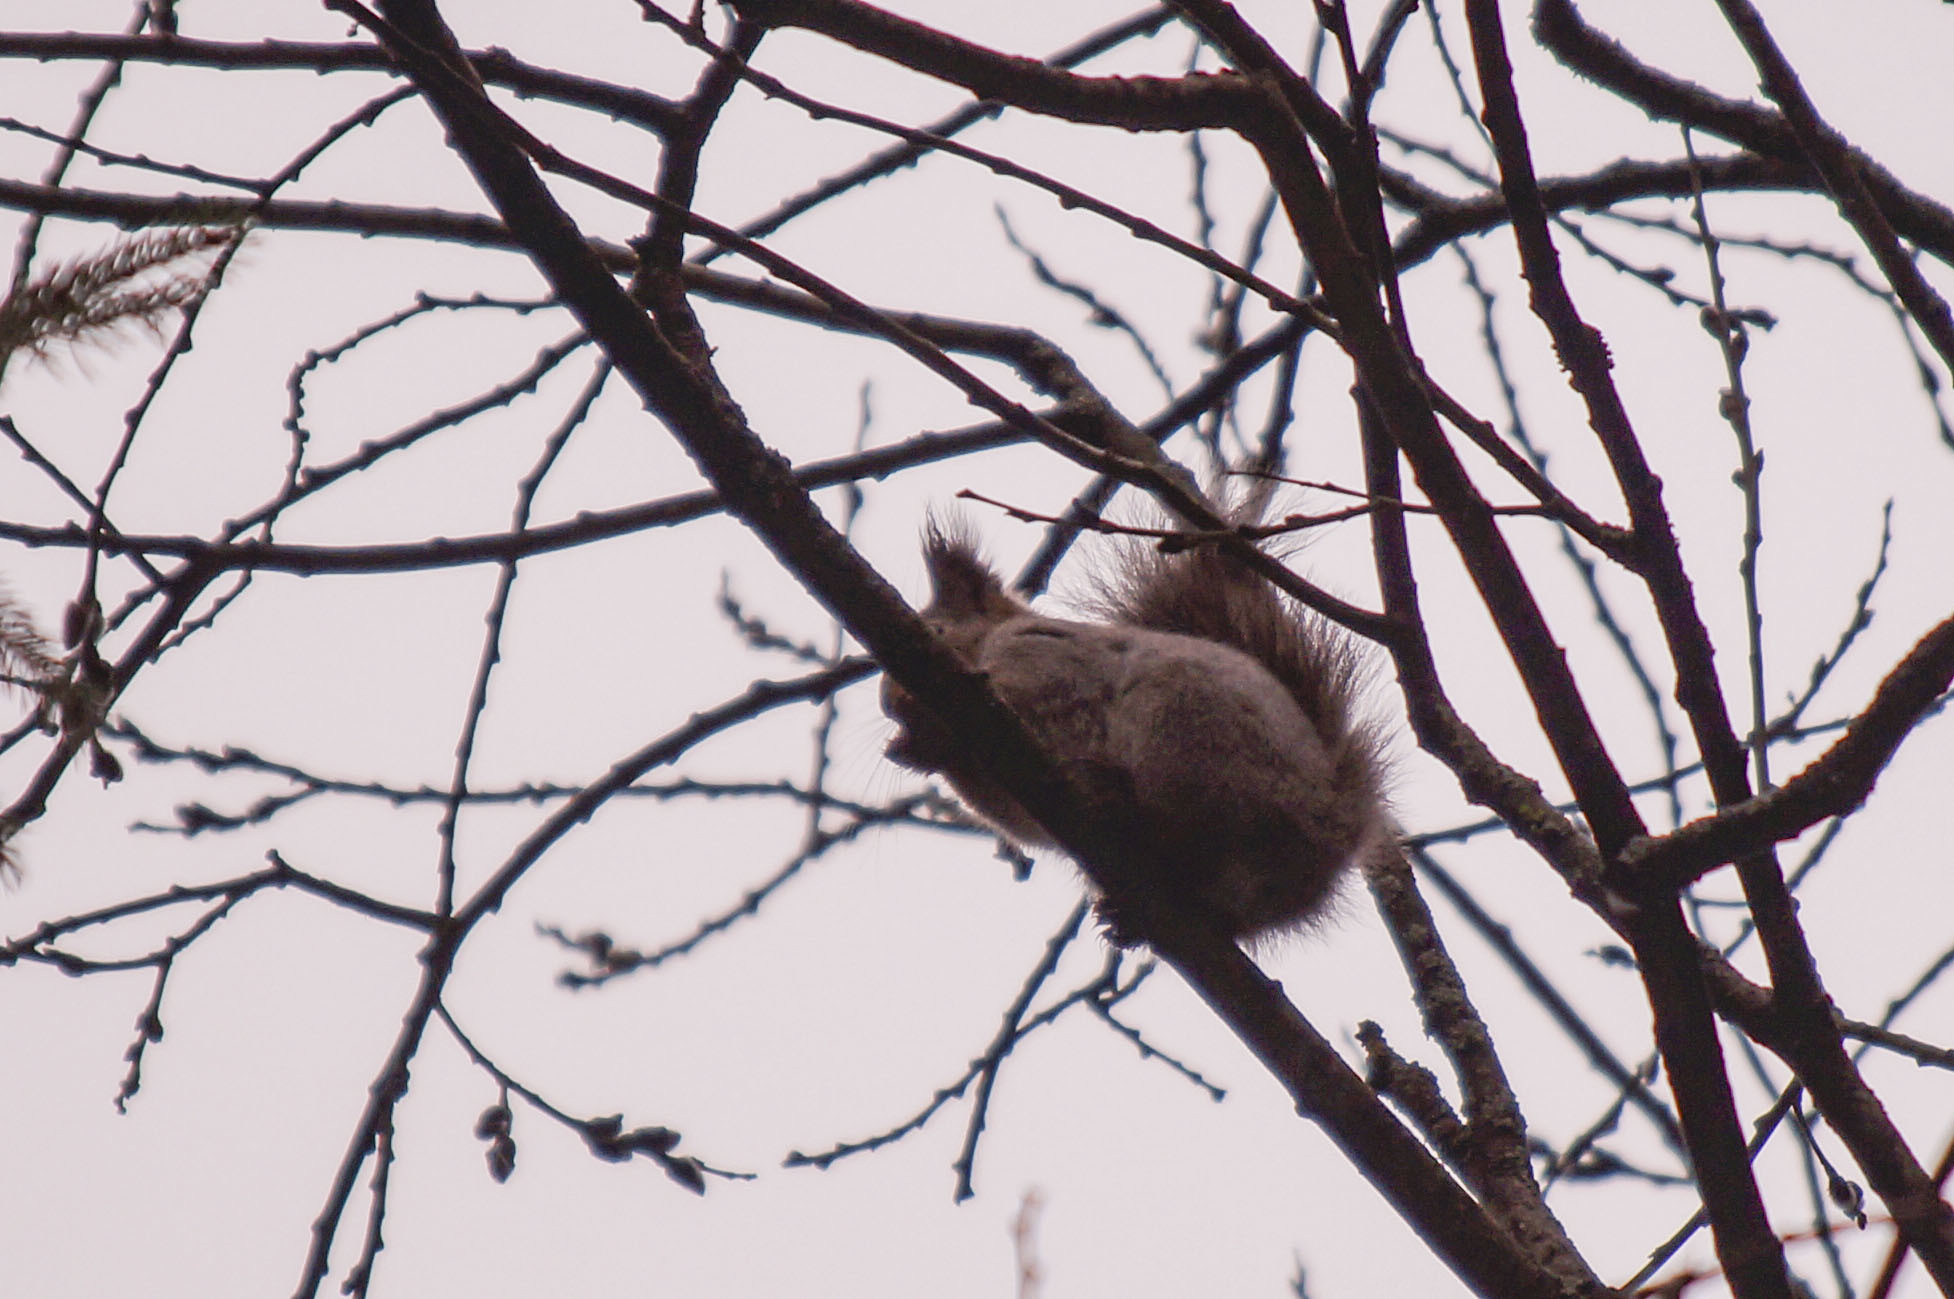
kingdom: Animalia
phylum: Chordata
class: Mammalia
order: Rodentia
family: Sciuridae
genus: Sciurus
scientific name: Sciurus vulgaris
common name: Eurasian red squirrel
